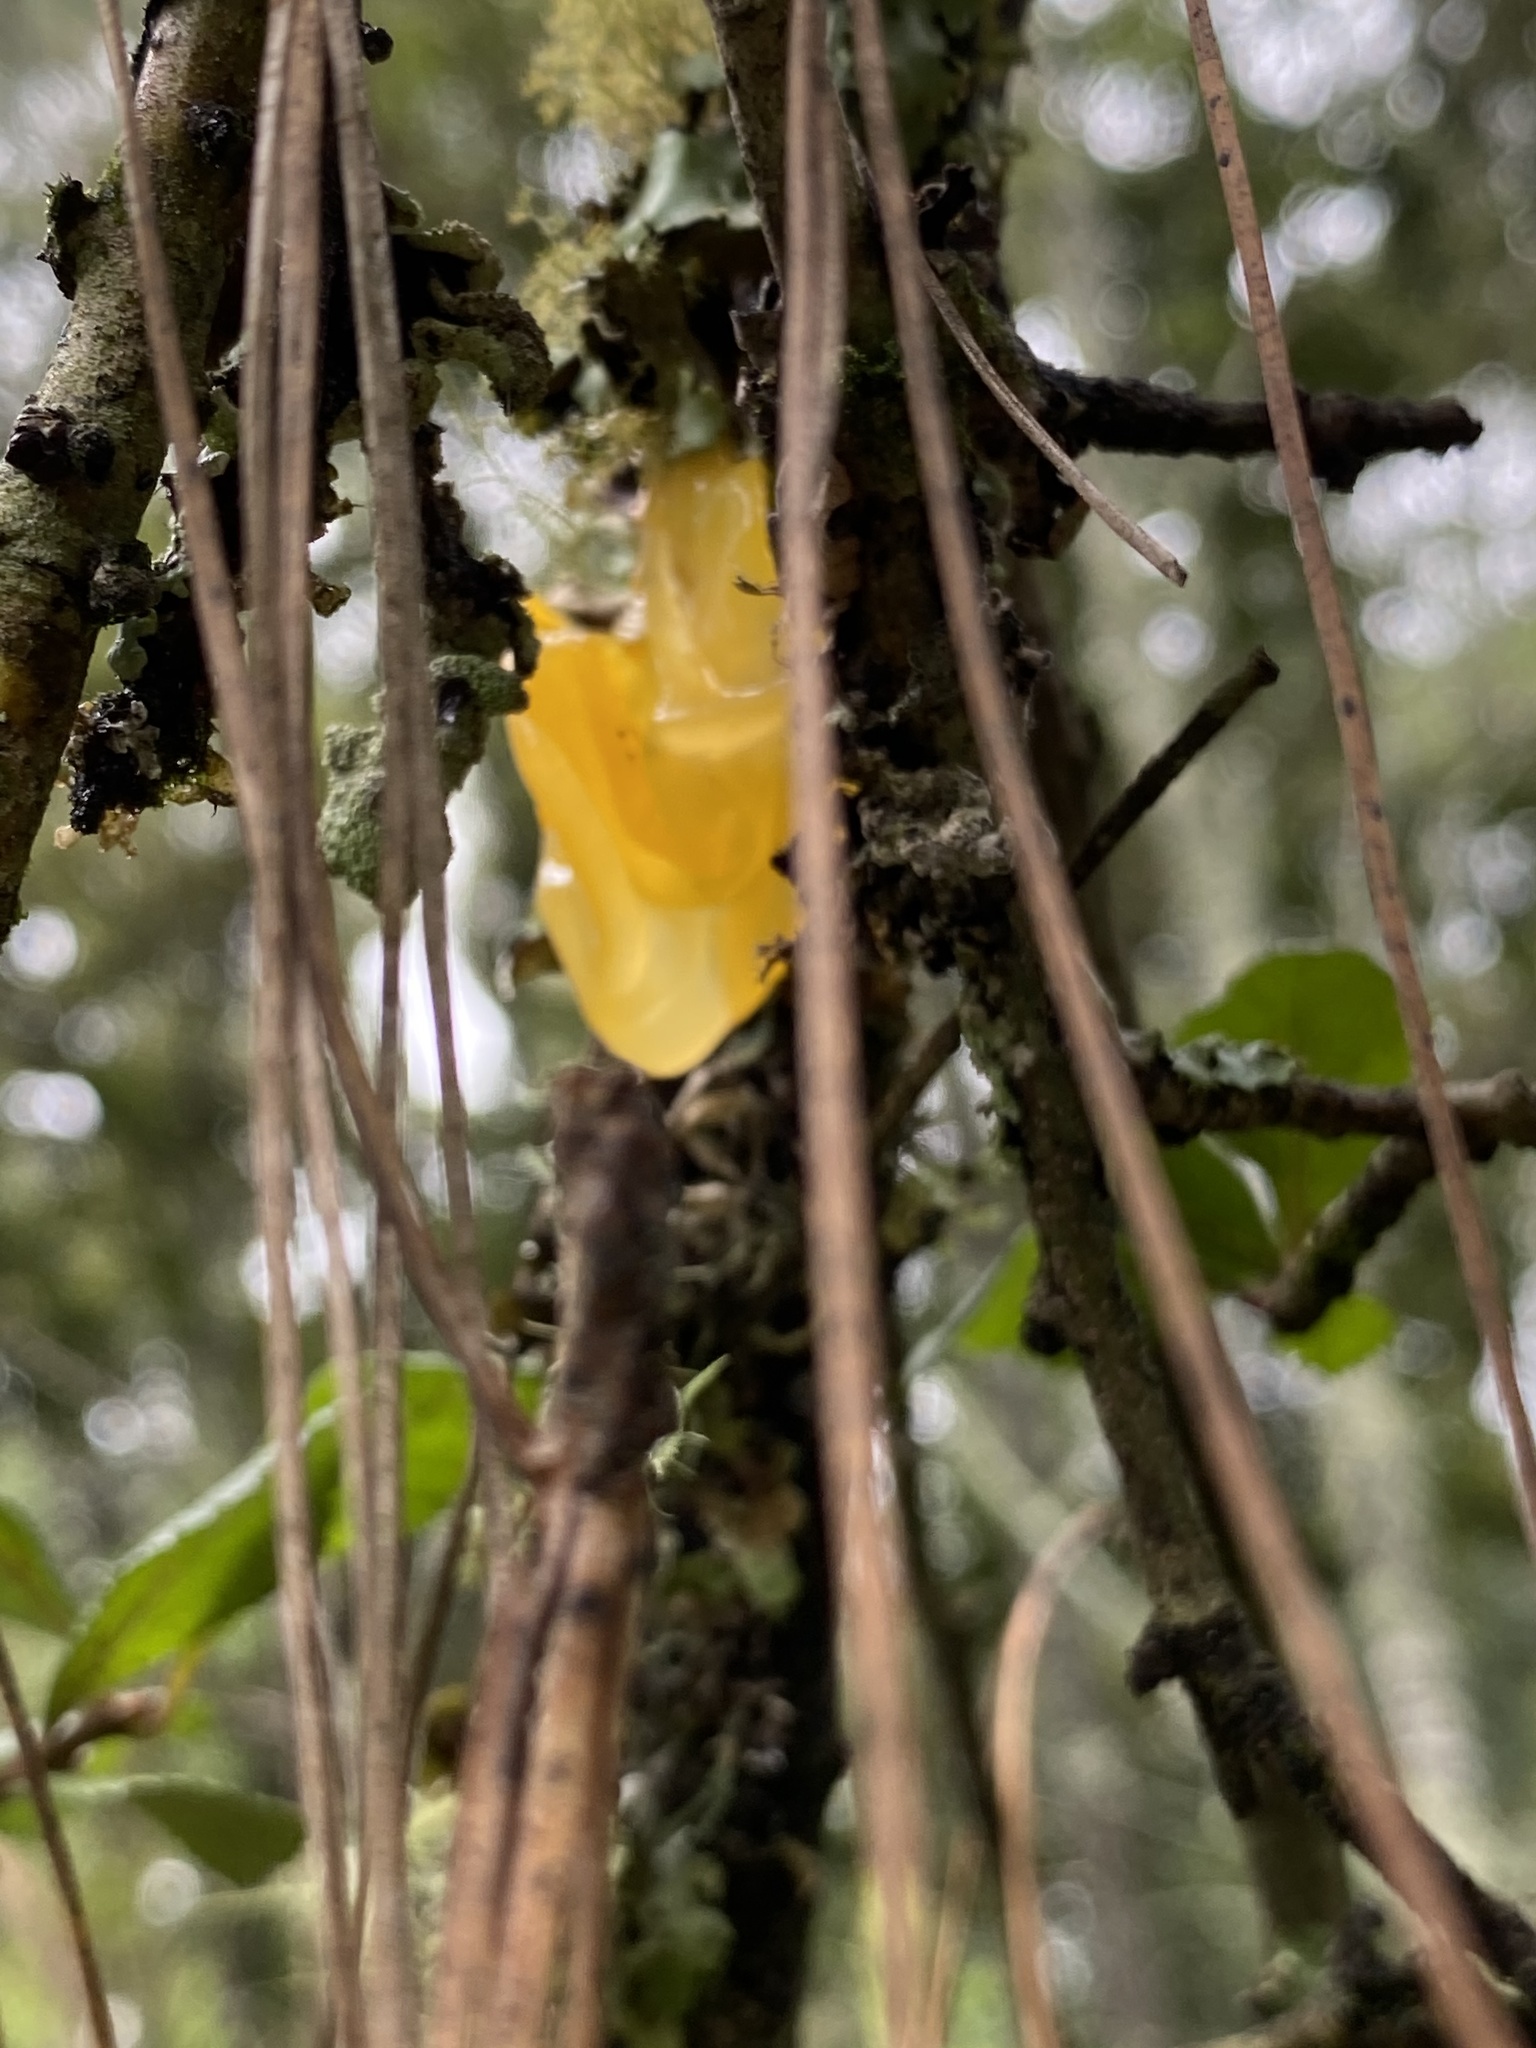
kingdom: Fungi
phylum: Basidiomycota
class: Tremellomycetes
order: Tremellales
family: Tremellaceae
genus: Tremella
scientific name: Tremella mesenterica
